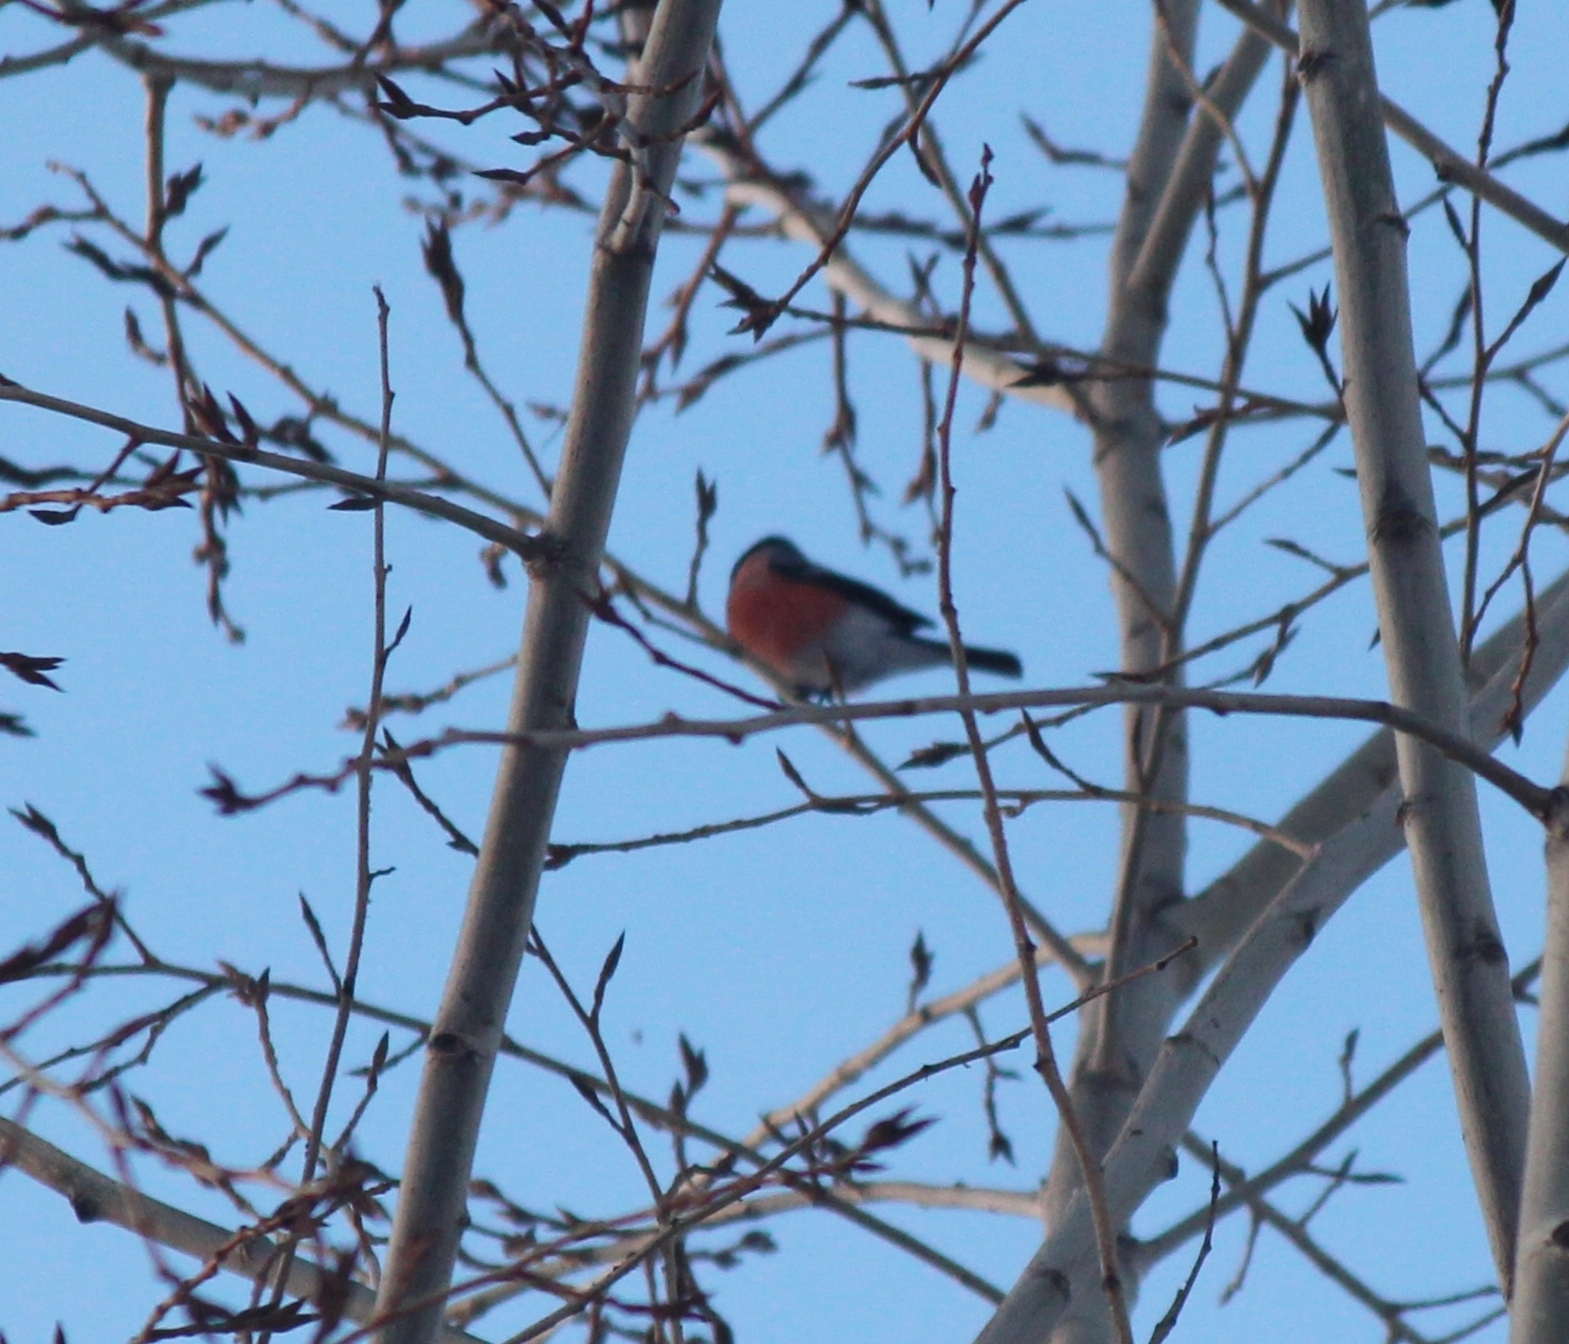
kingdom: Animalia
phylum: Chordata
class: Aves
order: Passeriformes
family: Fringillidae
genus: Pyrrhula
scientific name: Pyrrhula pyrrhula
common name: Eurasian bullfinch
